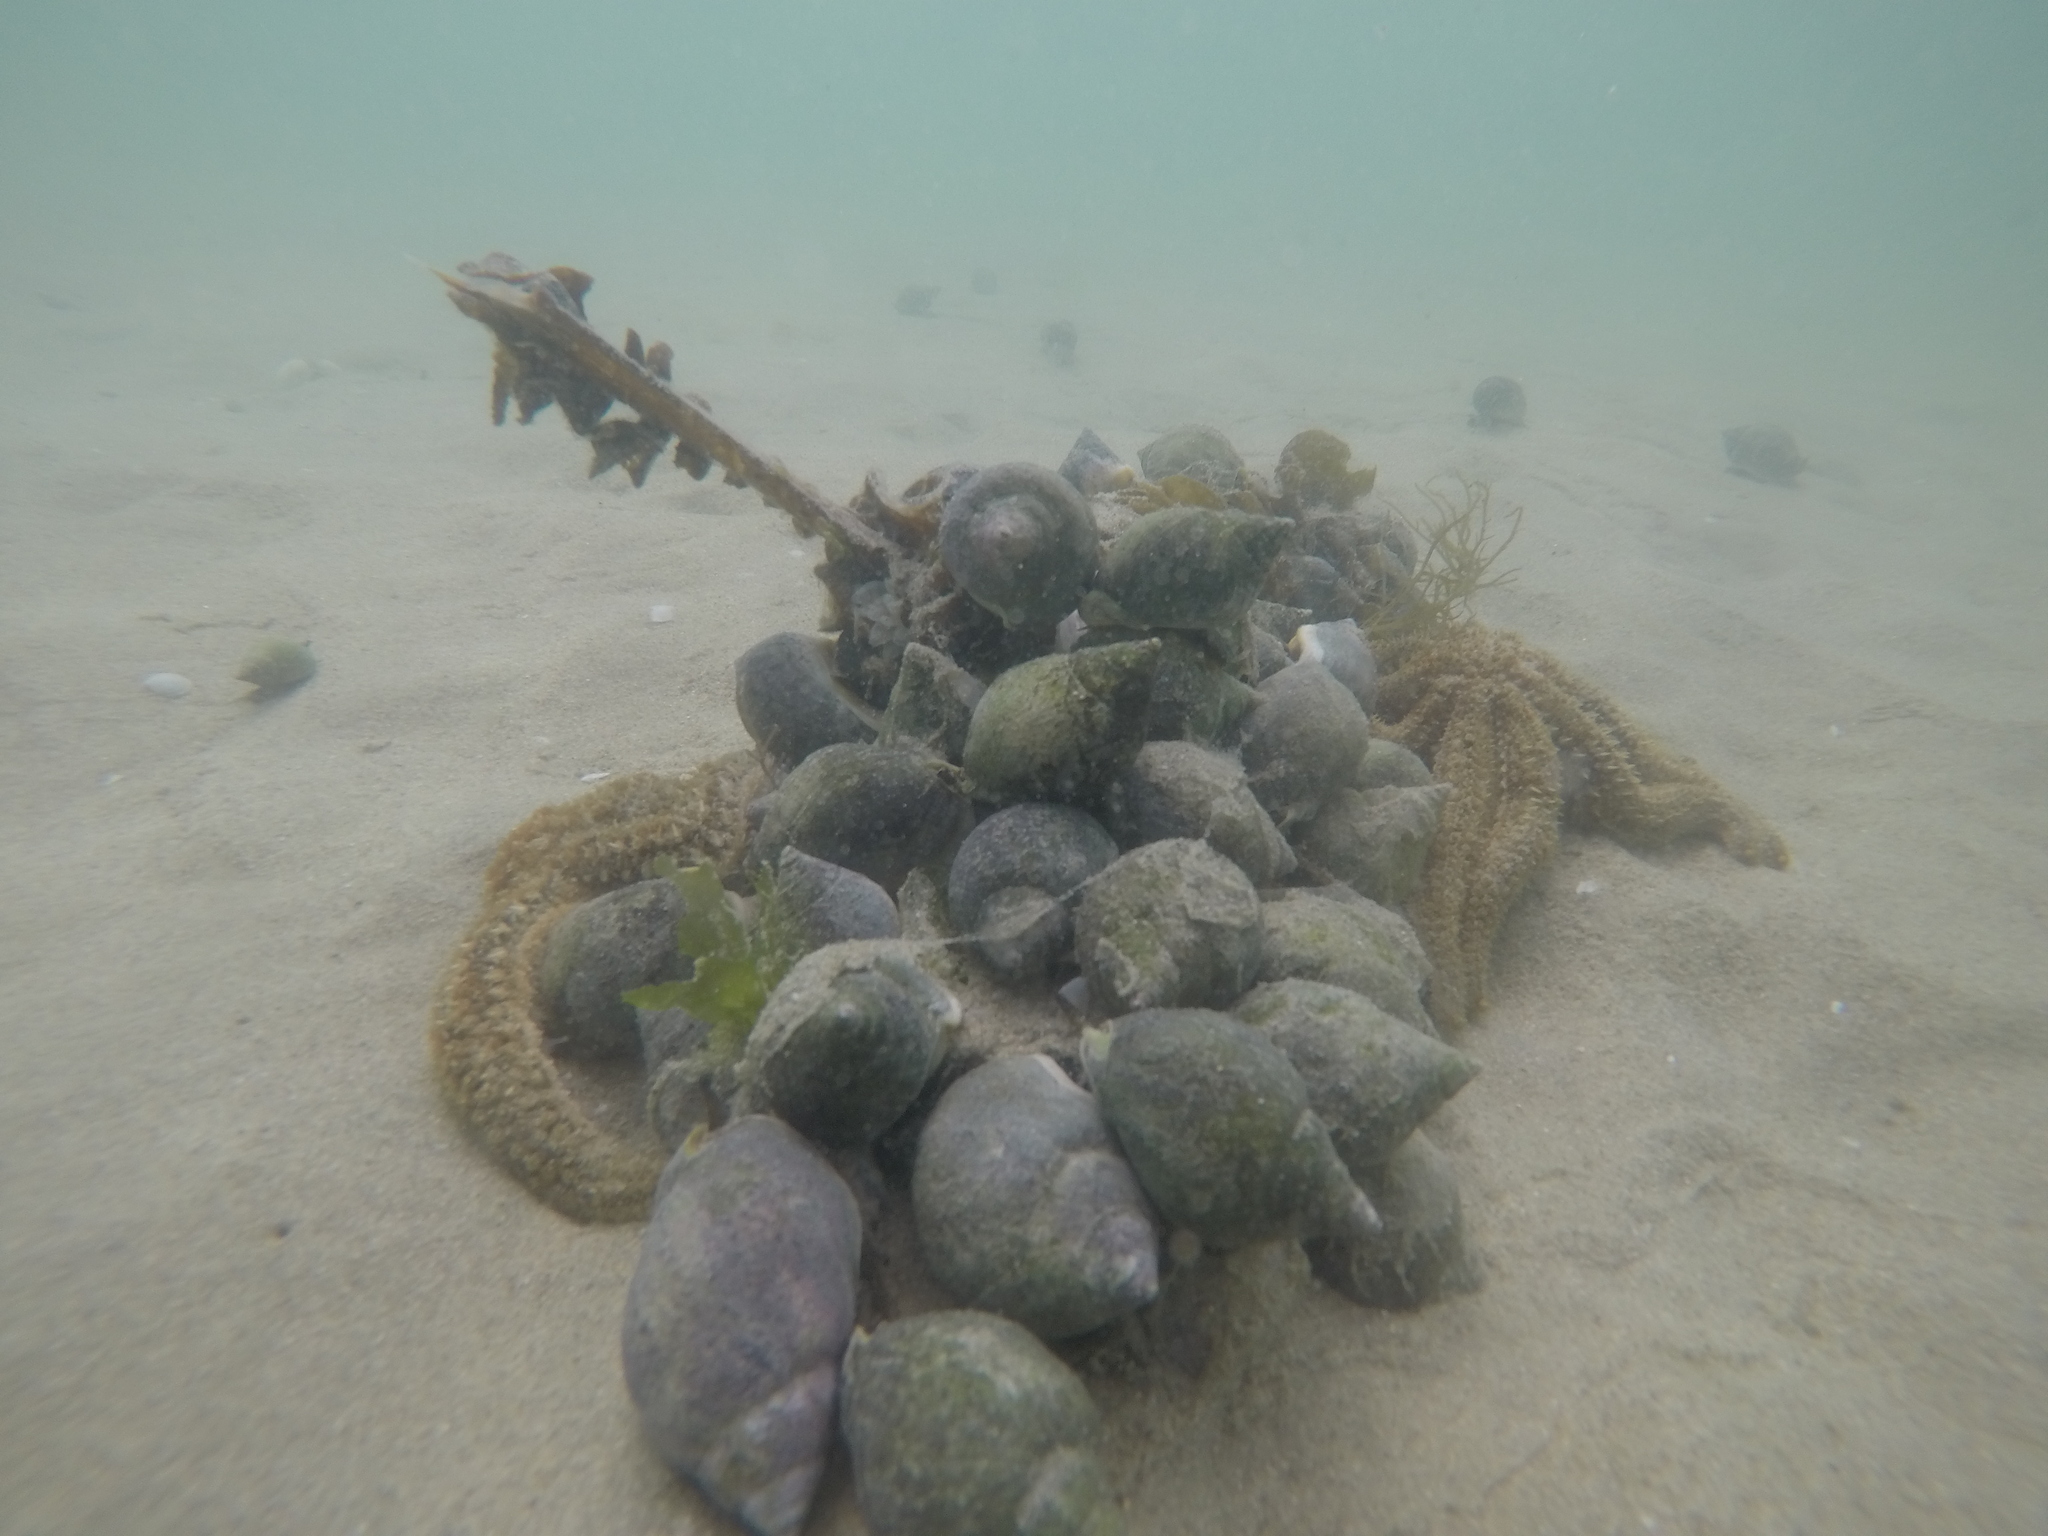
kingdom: Animalia
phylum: Echinodermata
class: Asteroidea
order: Forcipulatida
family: Asteriidae
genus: Coscinasterias
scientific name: Coscinasterias muricata
